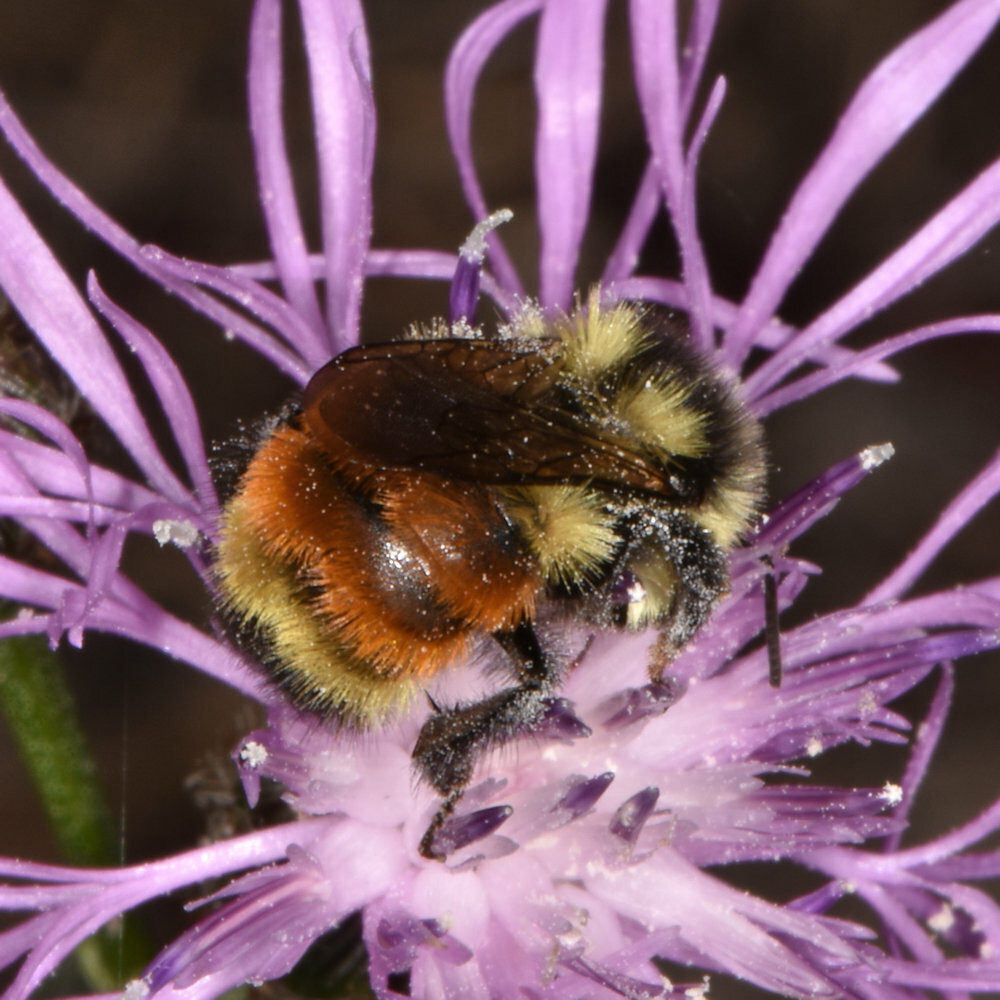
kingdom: Animalia
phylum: Arthropoda
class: Insecta
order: Hymenoptera
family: Apidae
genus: Bombus
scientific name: Bombus ternarius
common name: Tri-colored bumble bee
